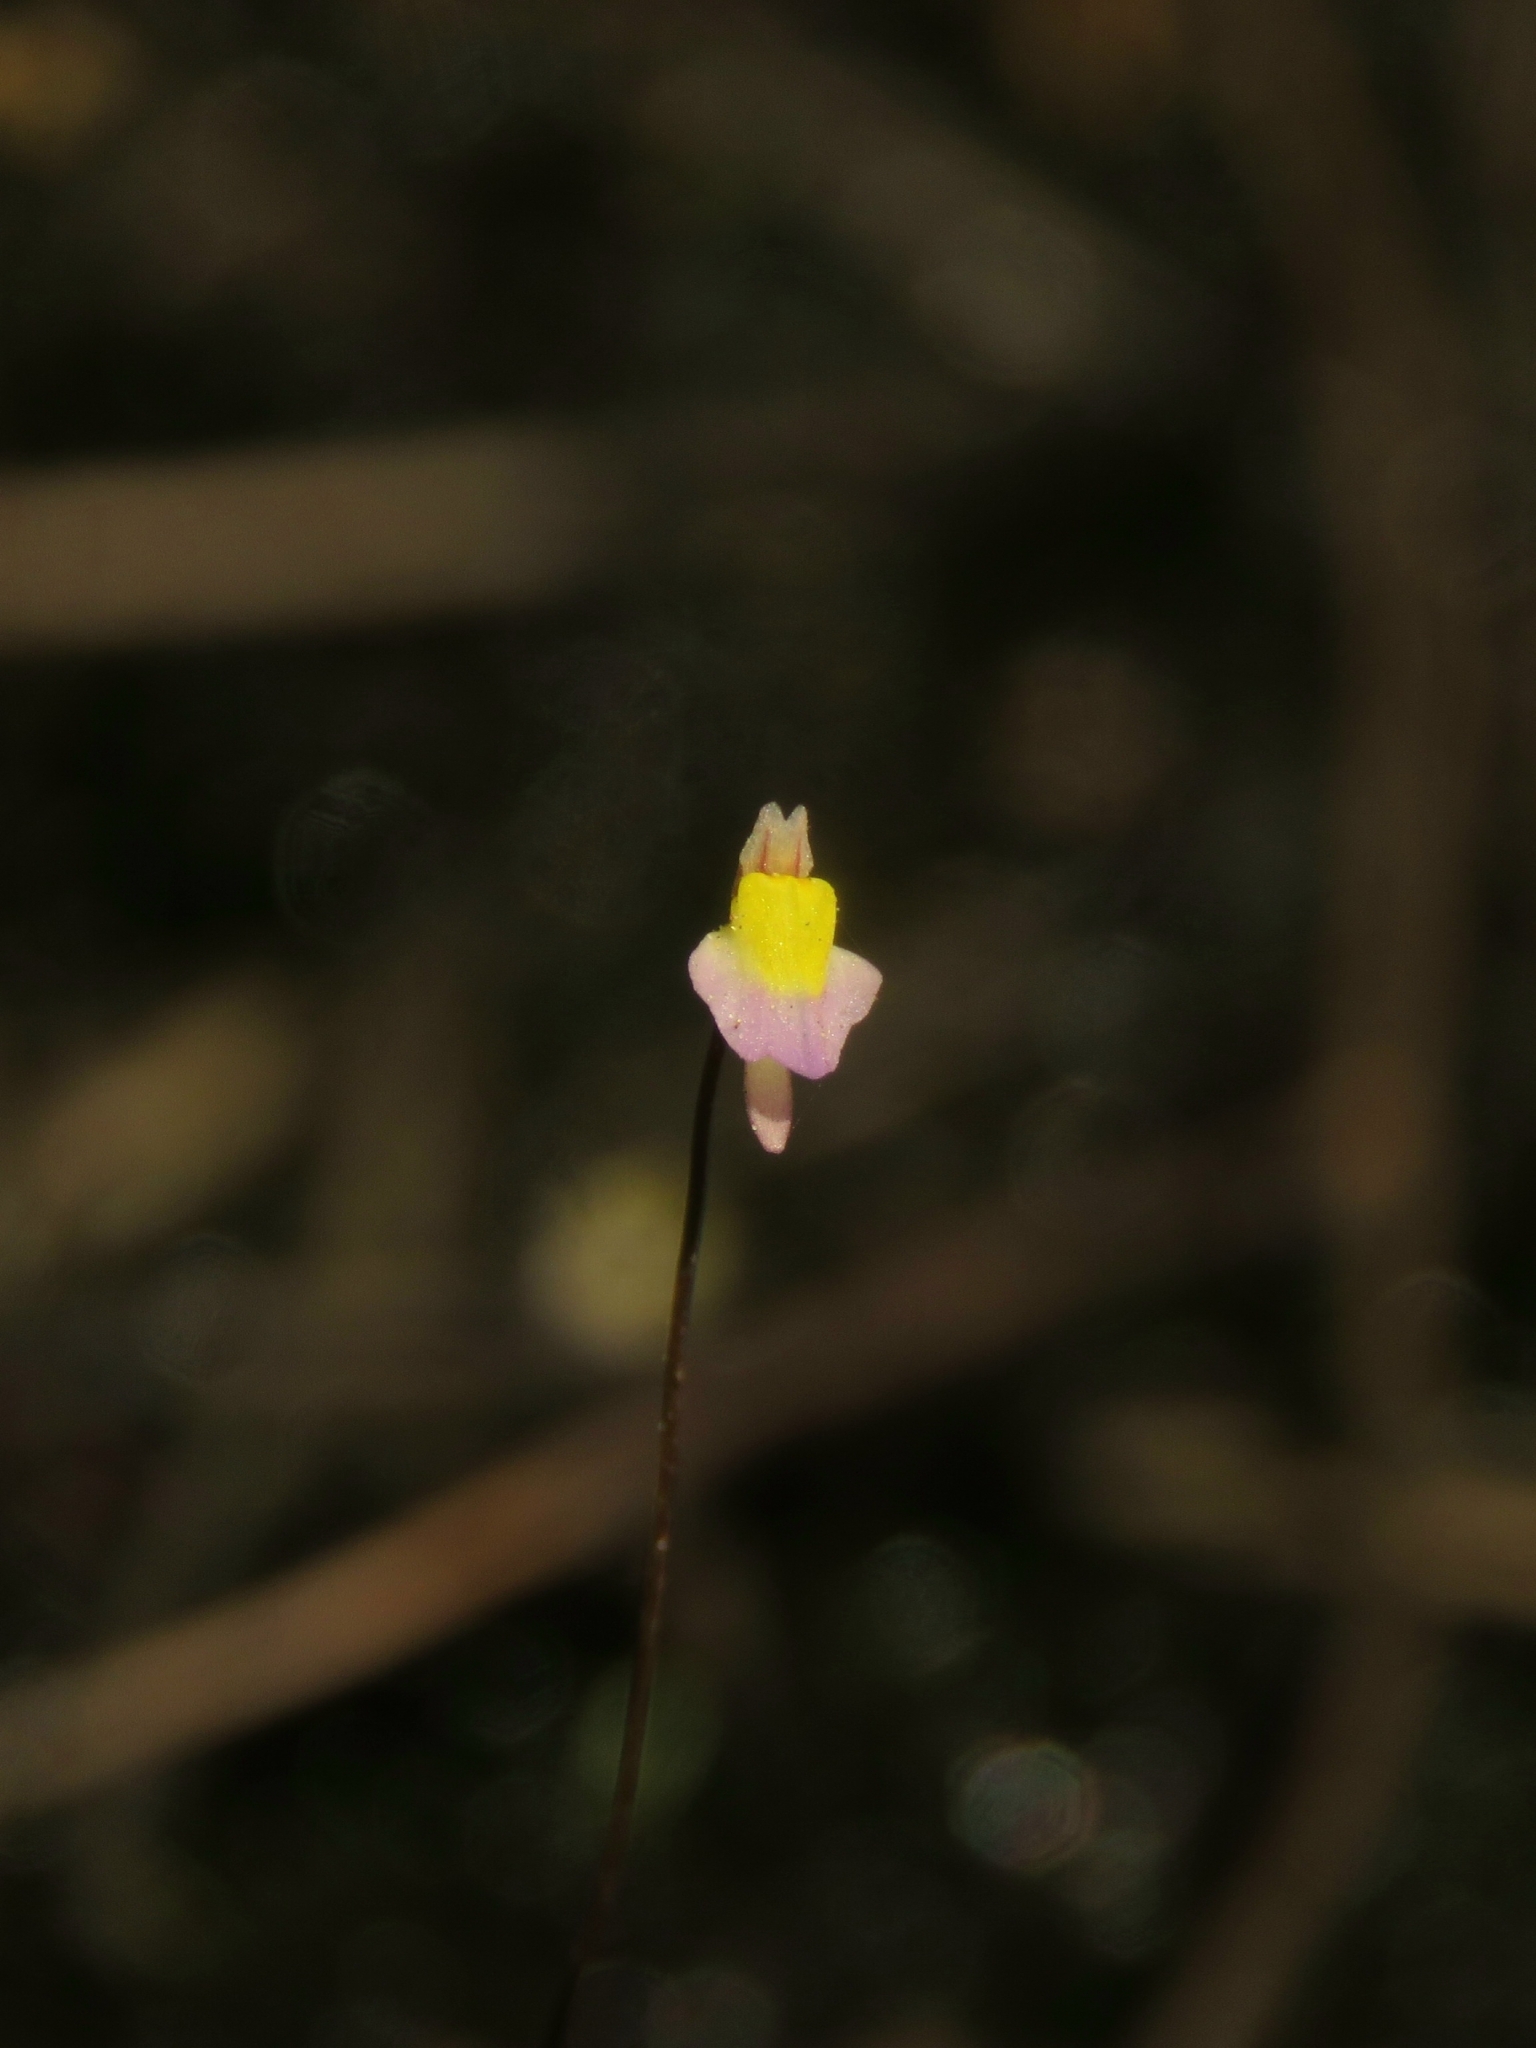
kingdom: Plantae
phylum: Tracheophyta
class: Magnoliopsida
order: Lamiales
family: Lentibulariaceae
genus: Utricularia
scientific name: Utricularia bisquamata
